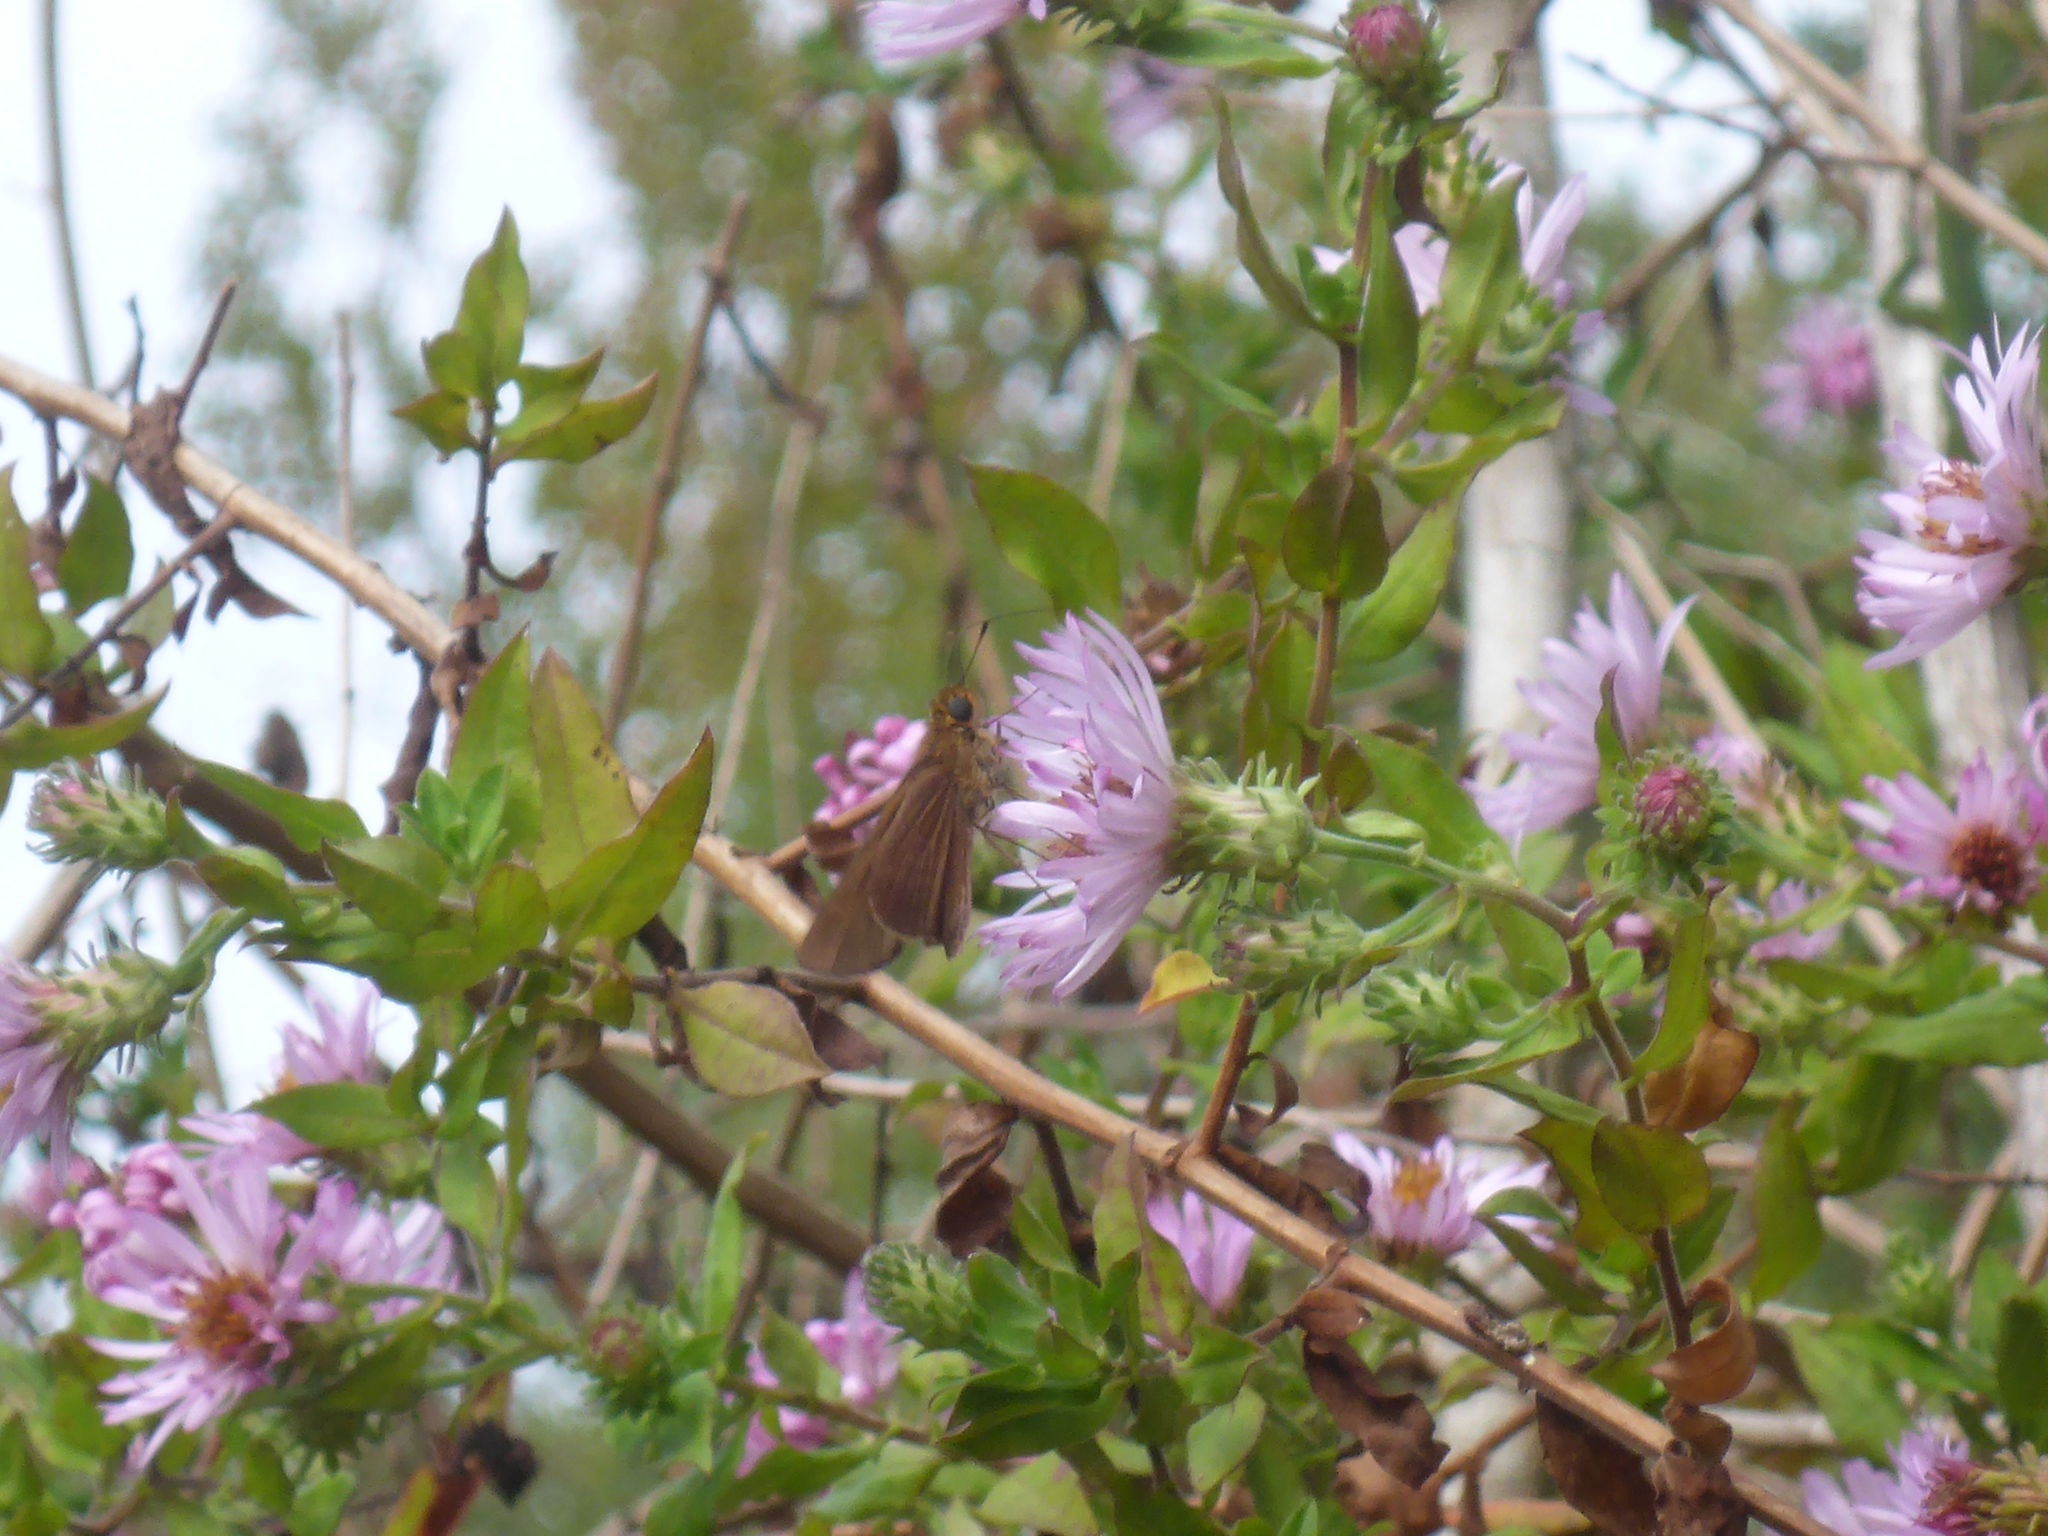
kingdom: Animalia
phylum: Arthropoda
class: Insecta
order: Lepidoptera
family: Hesperiidae
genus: Panoquina
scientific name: Panoquina ocola
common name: Ocola skipper
